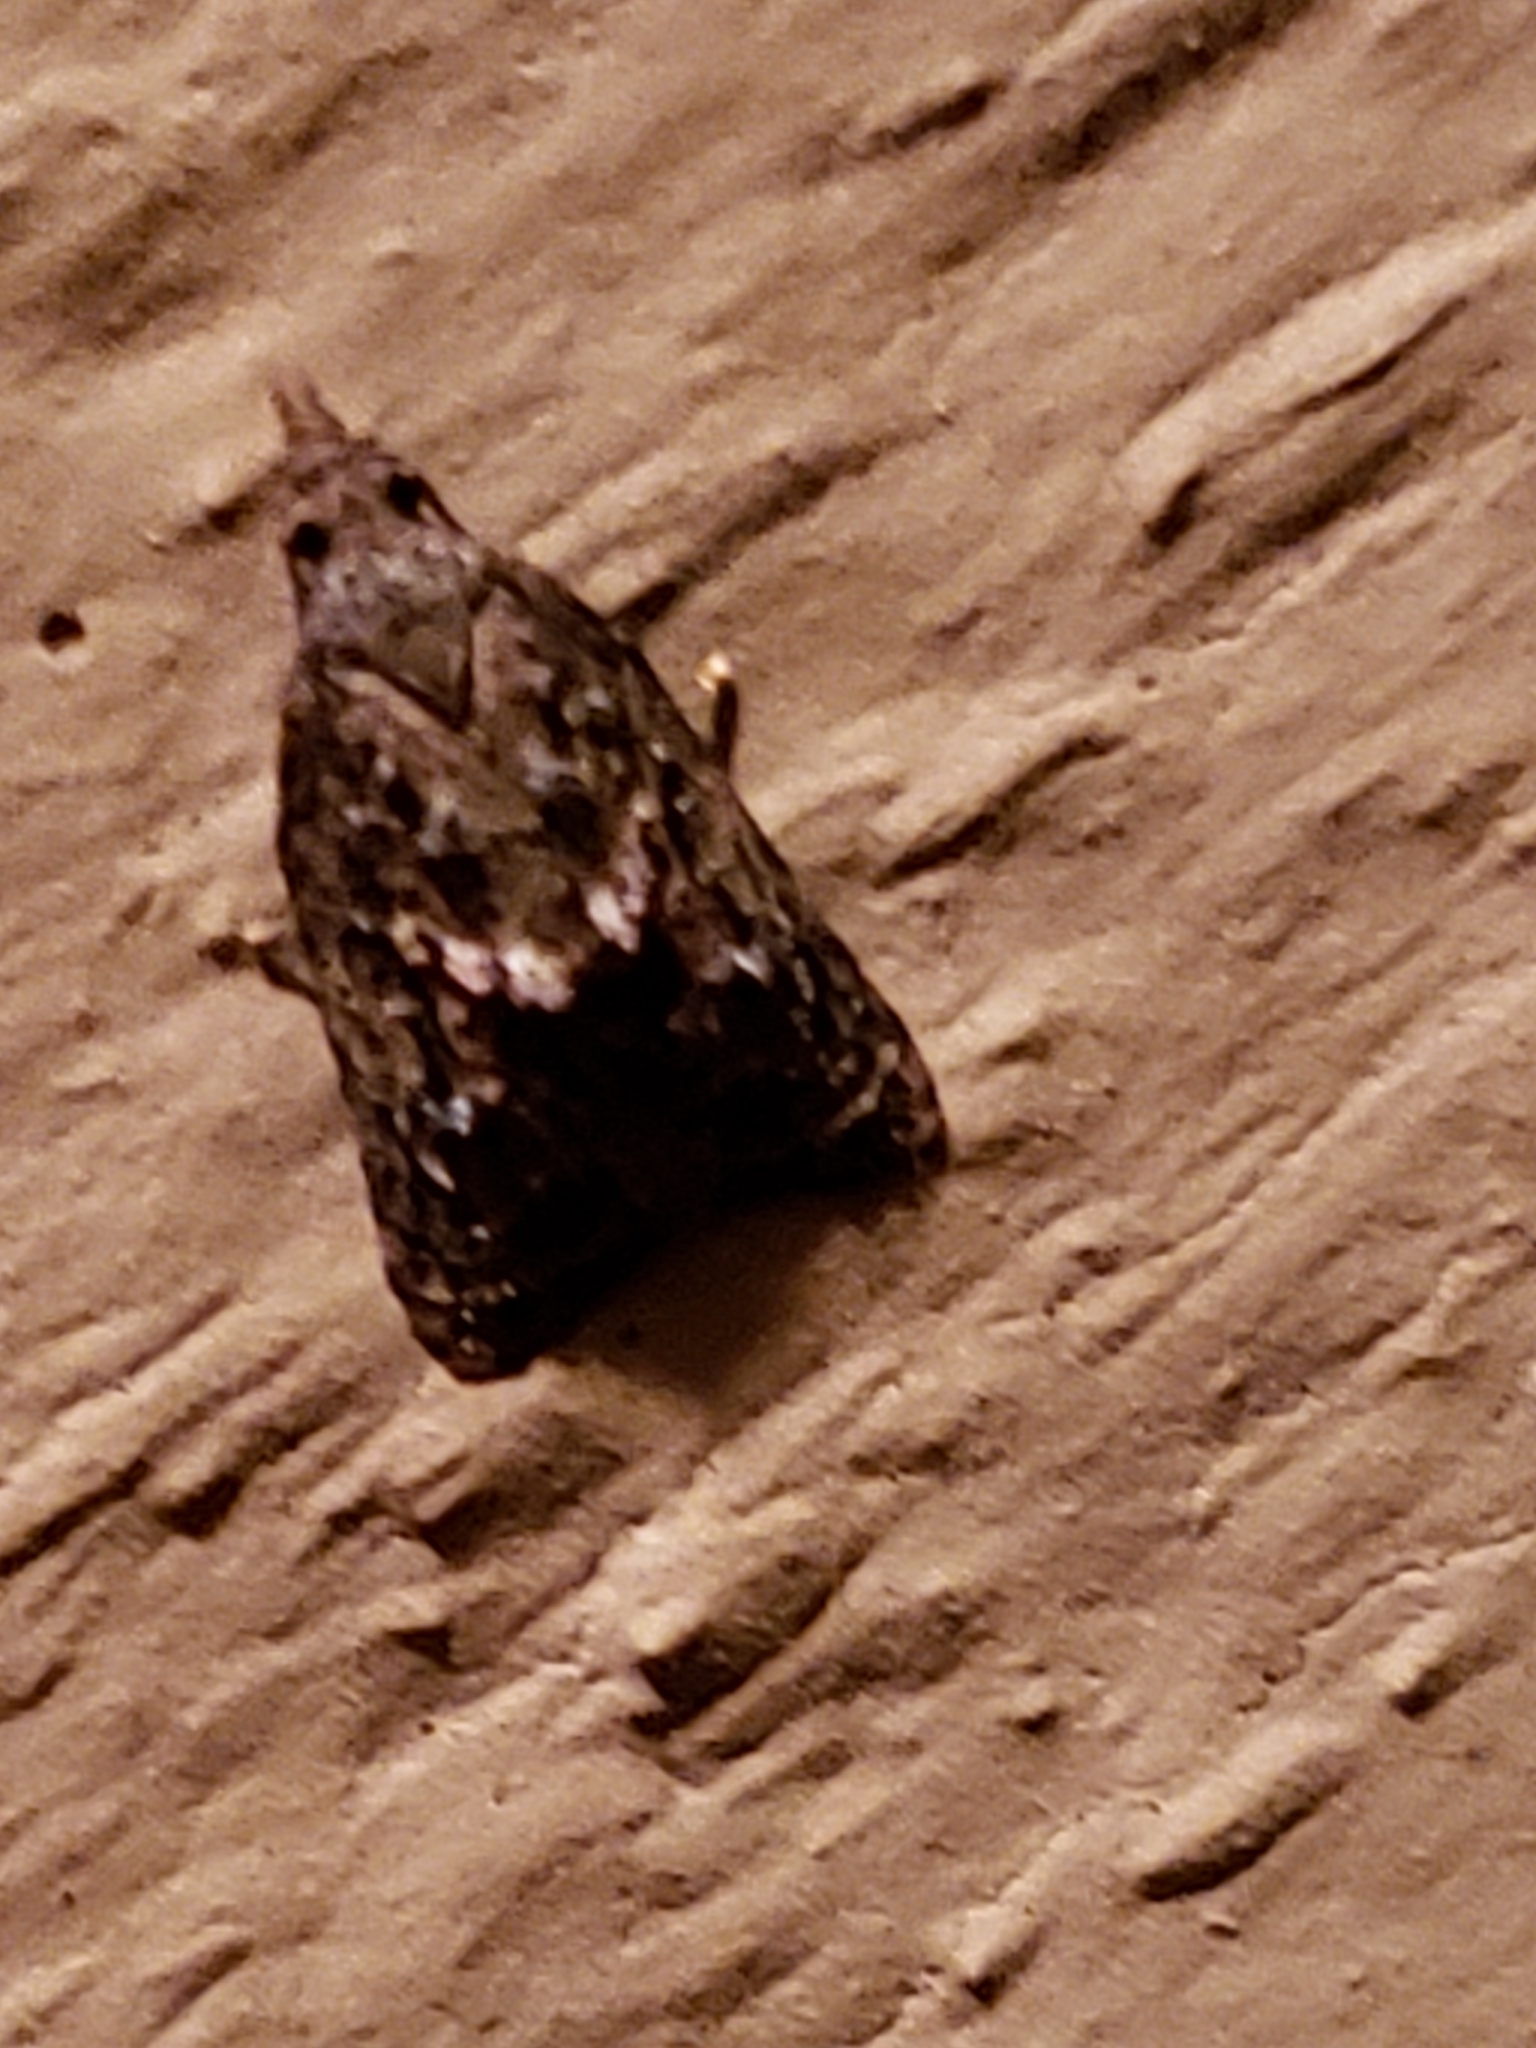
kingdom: Animalia
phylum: Arthropoda
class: Insecta
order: Lepidoptera
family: Tortricidae
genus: Platynota
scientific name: Platynota idaeusalis
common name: Tufted apple bud moth
